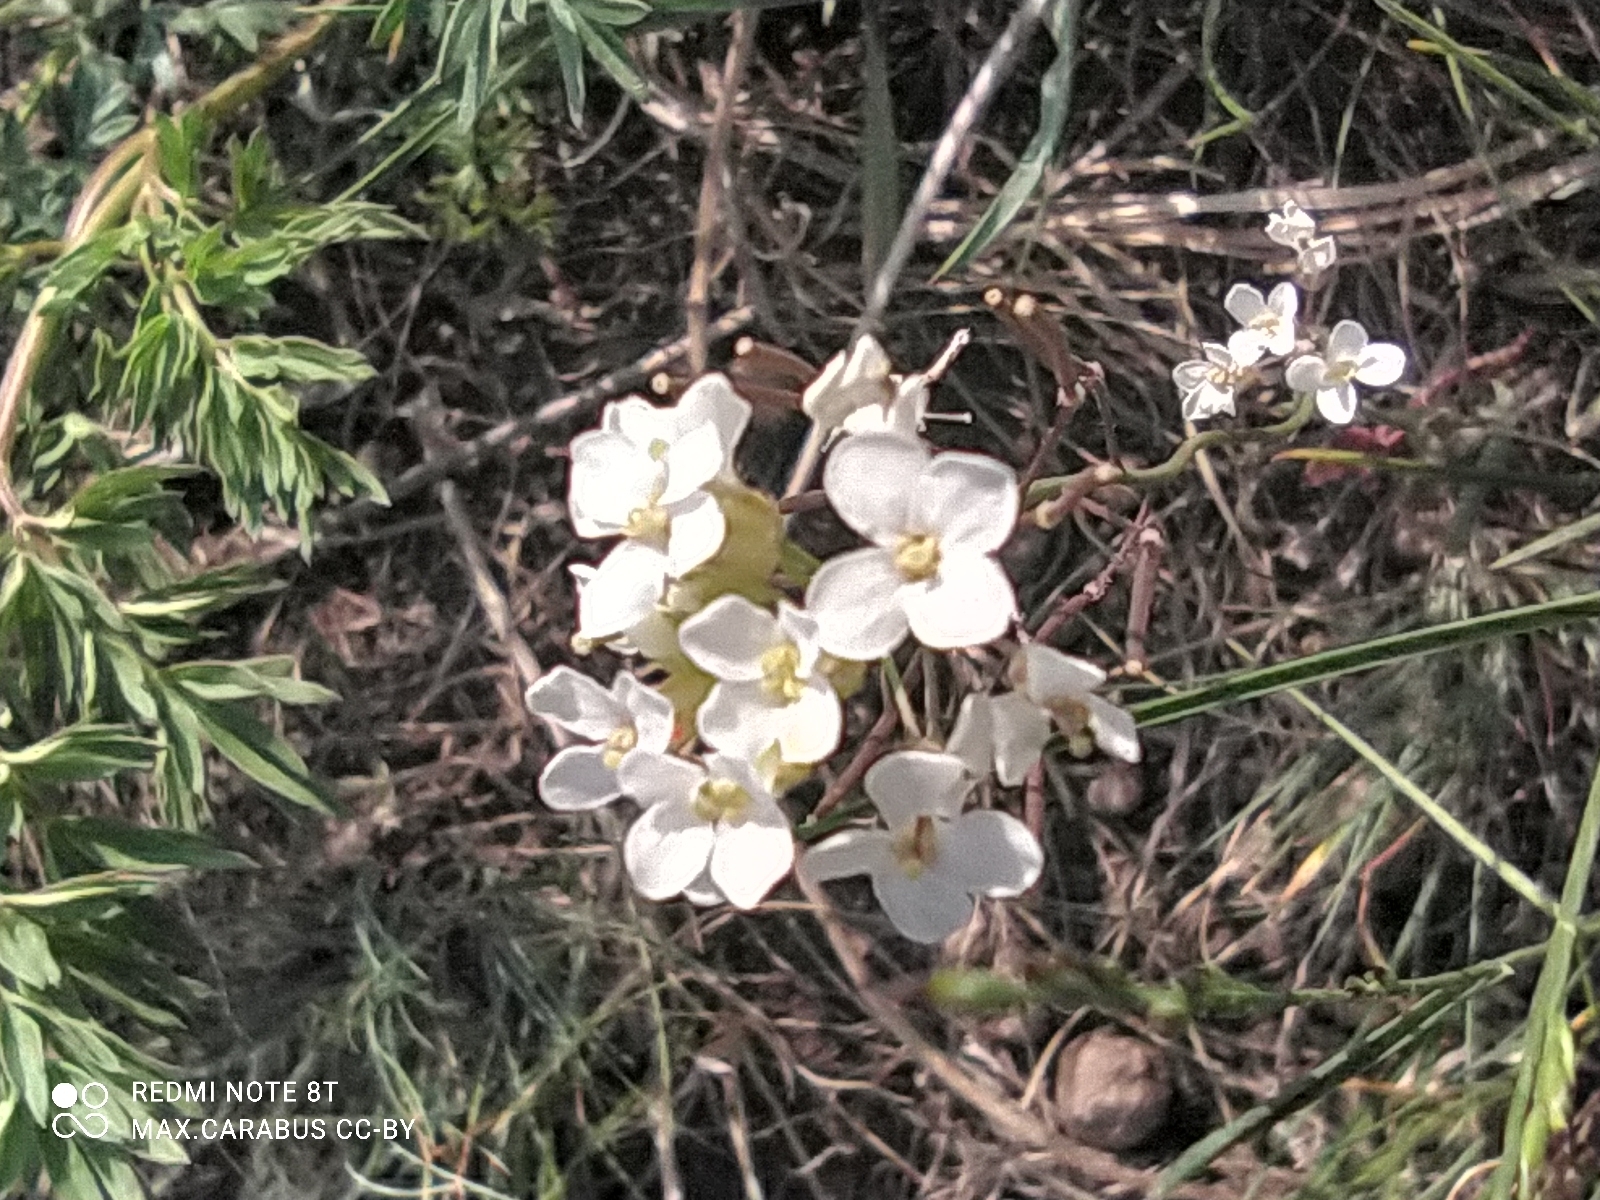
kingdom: Plantae
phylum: Tracheophyta
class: Magnoliopsida
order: Brassicales
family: Brassicaceae
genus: Pseudoarabidopsis
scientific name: Pseudoarabidopsis toxophylla
